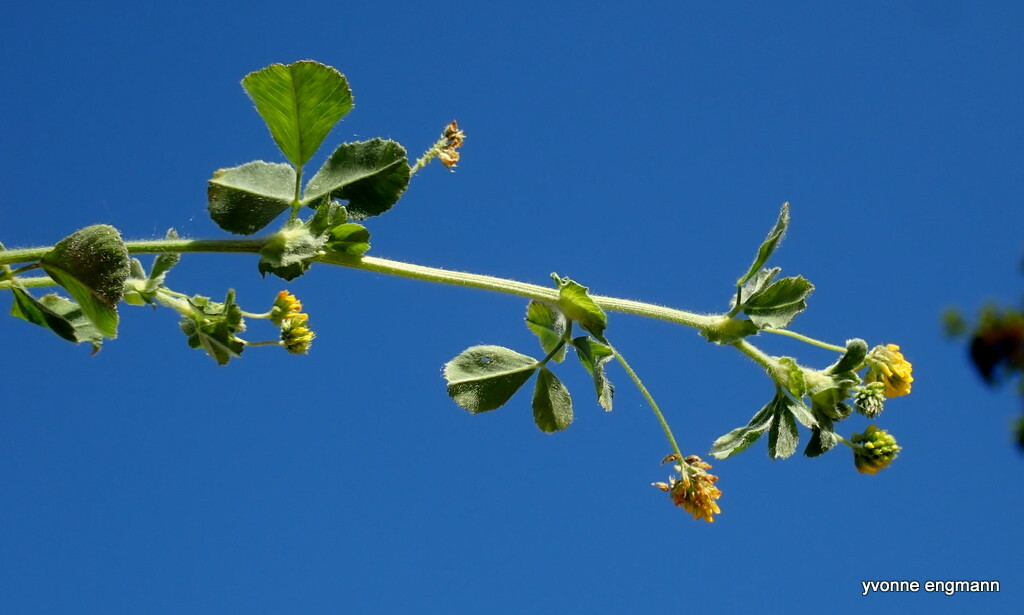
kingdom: Plantae
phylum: Tracheophyta
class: Magnoliopsida
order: Fabales
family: Fabaceae
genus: Medicago
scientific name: Medicago lupulina
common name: Black medick
